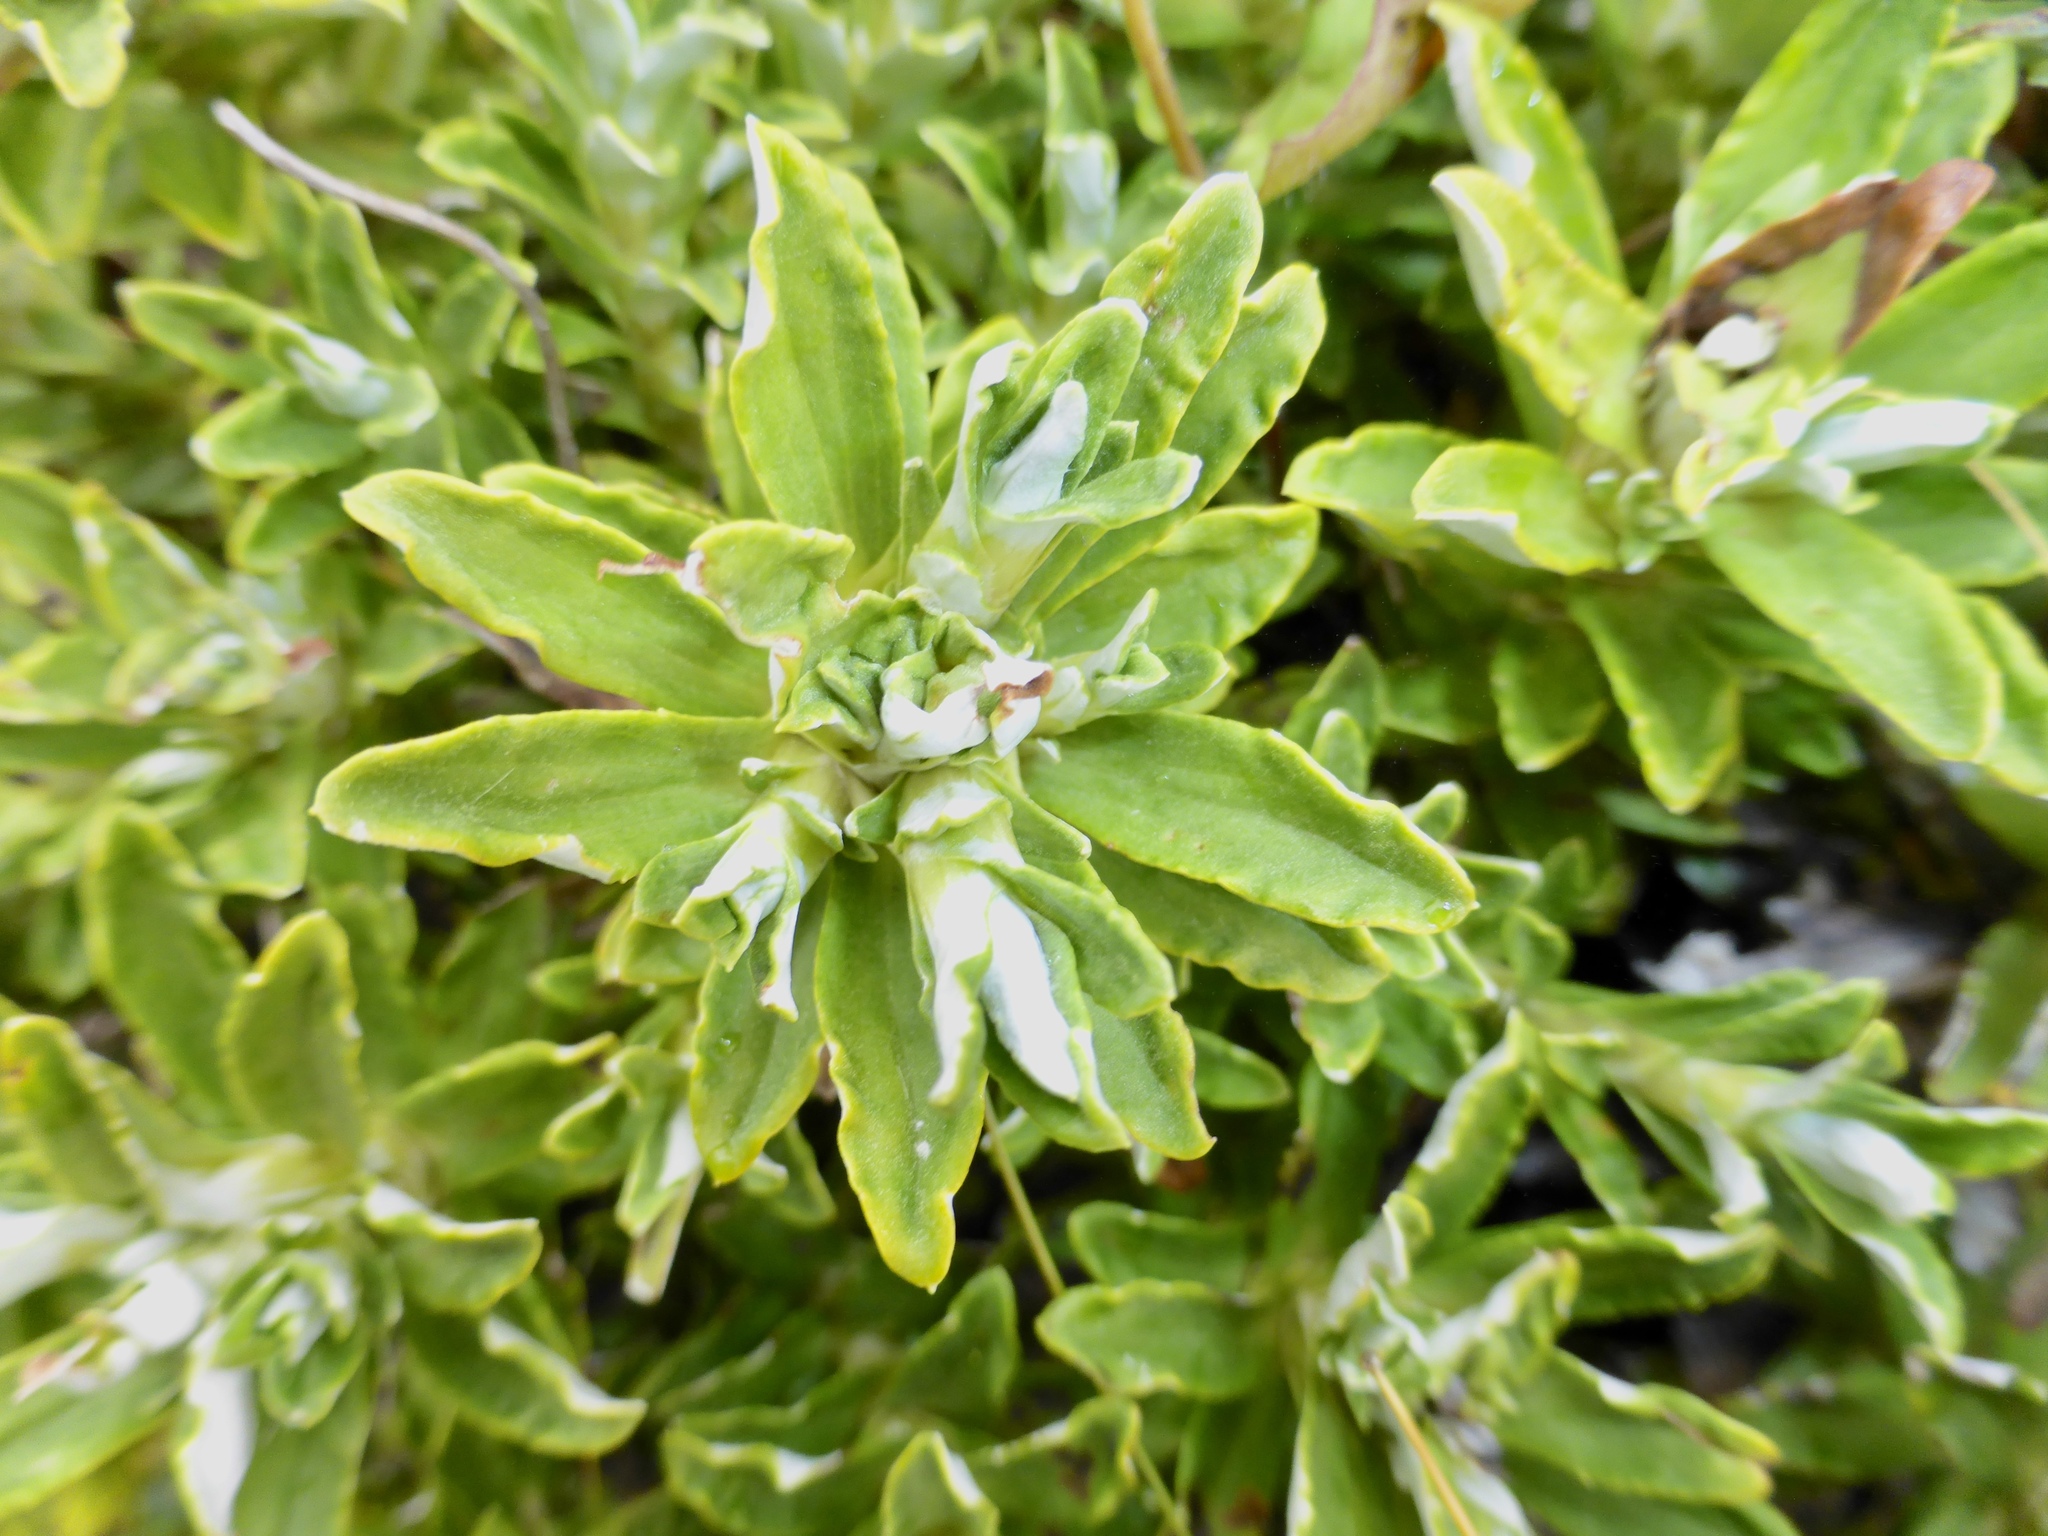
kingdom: Plantae
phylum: Tracheophyta
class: Magnoliopsida
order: Asterales
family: Asteraceae
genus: Celmisia
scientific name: Celmisia angustifolia
